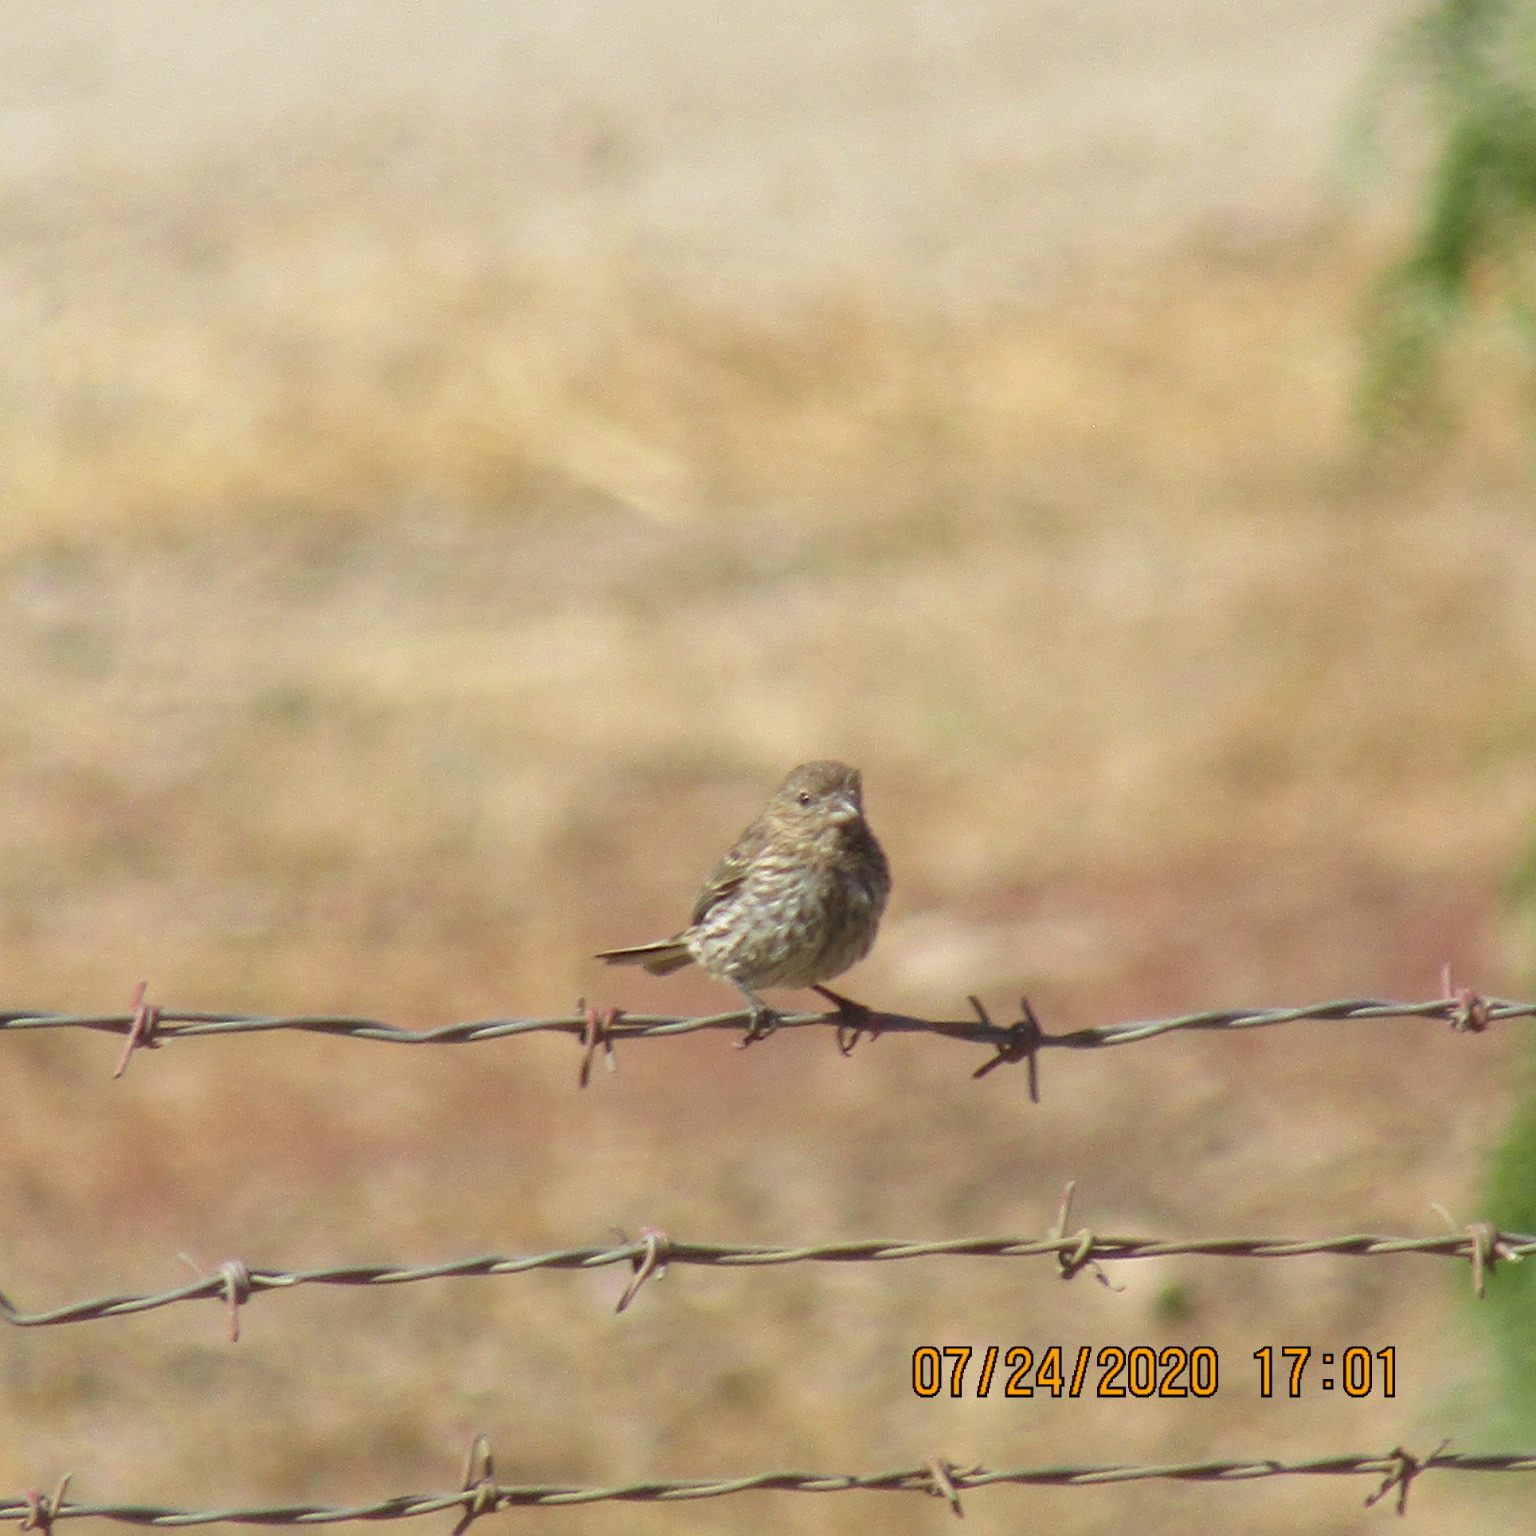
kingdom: Animalia
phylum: Chordata
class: Aves
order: Passeriformes
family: Fringillidae
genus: Haemorhous
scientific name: Haemorhous mexicanus
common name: House finch
